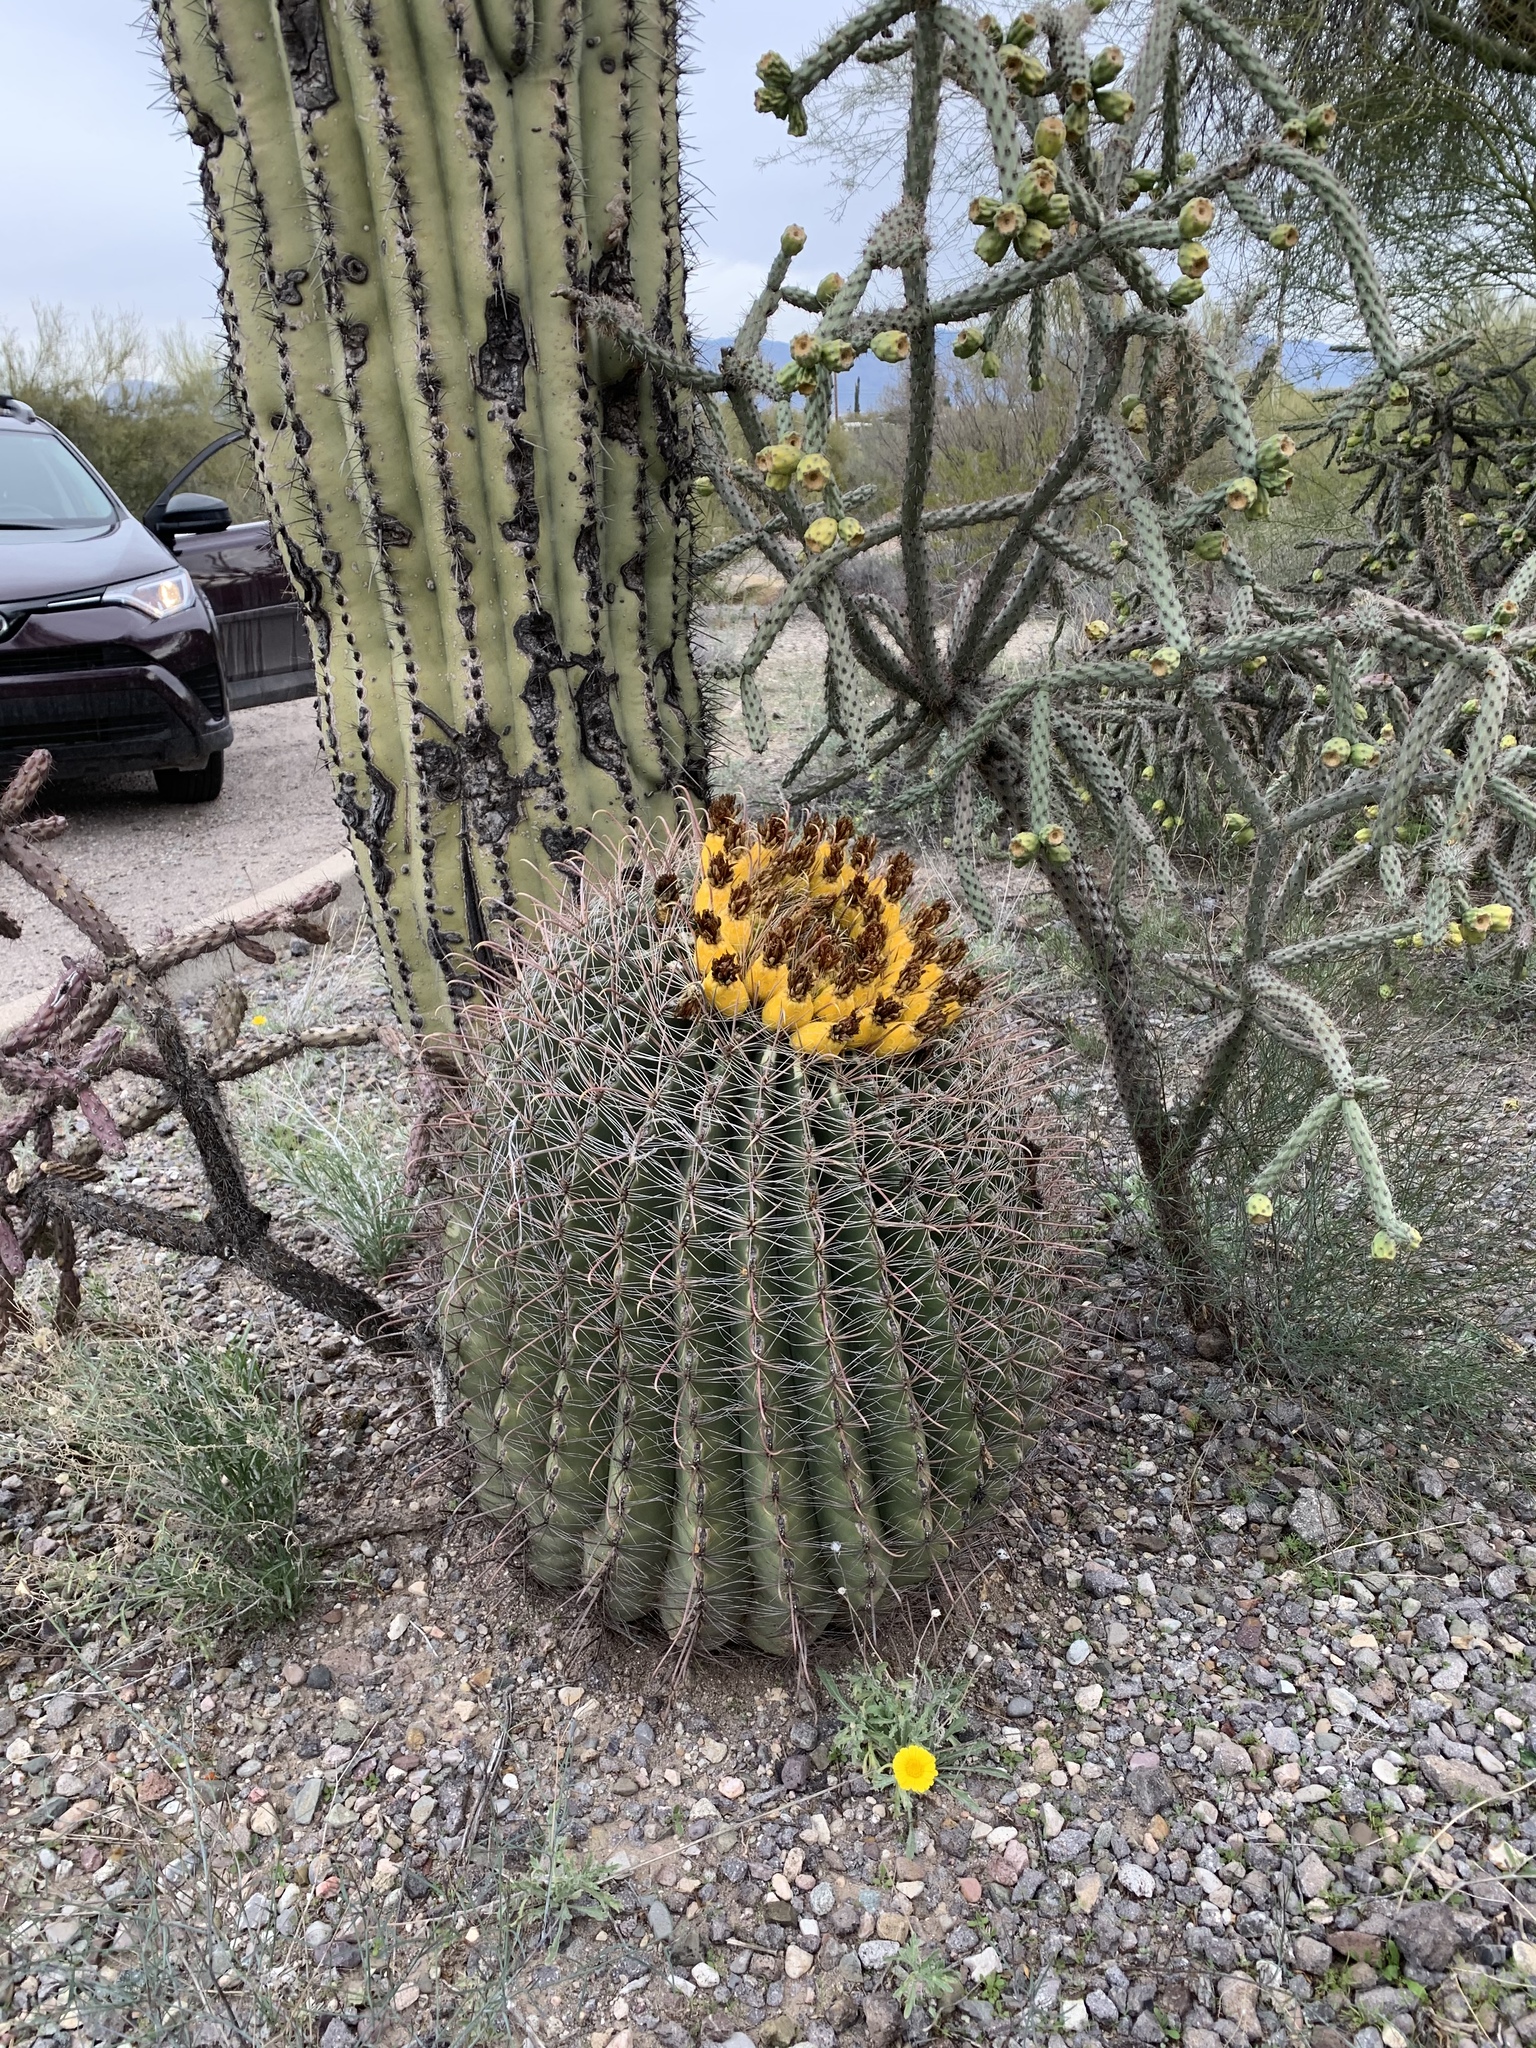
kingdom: Plantae
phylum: Tracheophyta
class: Magnoliopsida
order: Caryophyllales
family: Cactaceae
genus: Ferocactus
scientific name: Ferocactus wislizeni
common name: Candy barrel cactus
